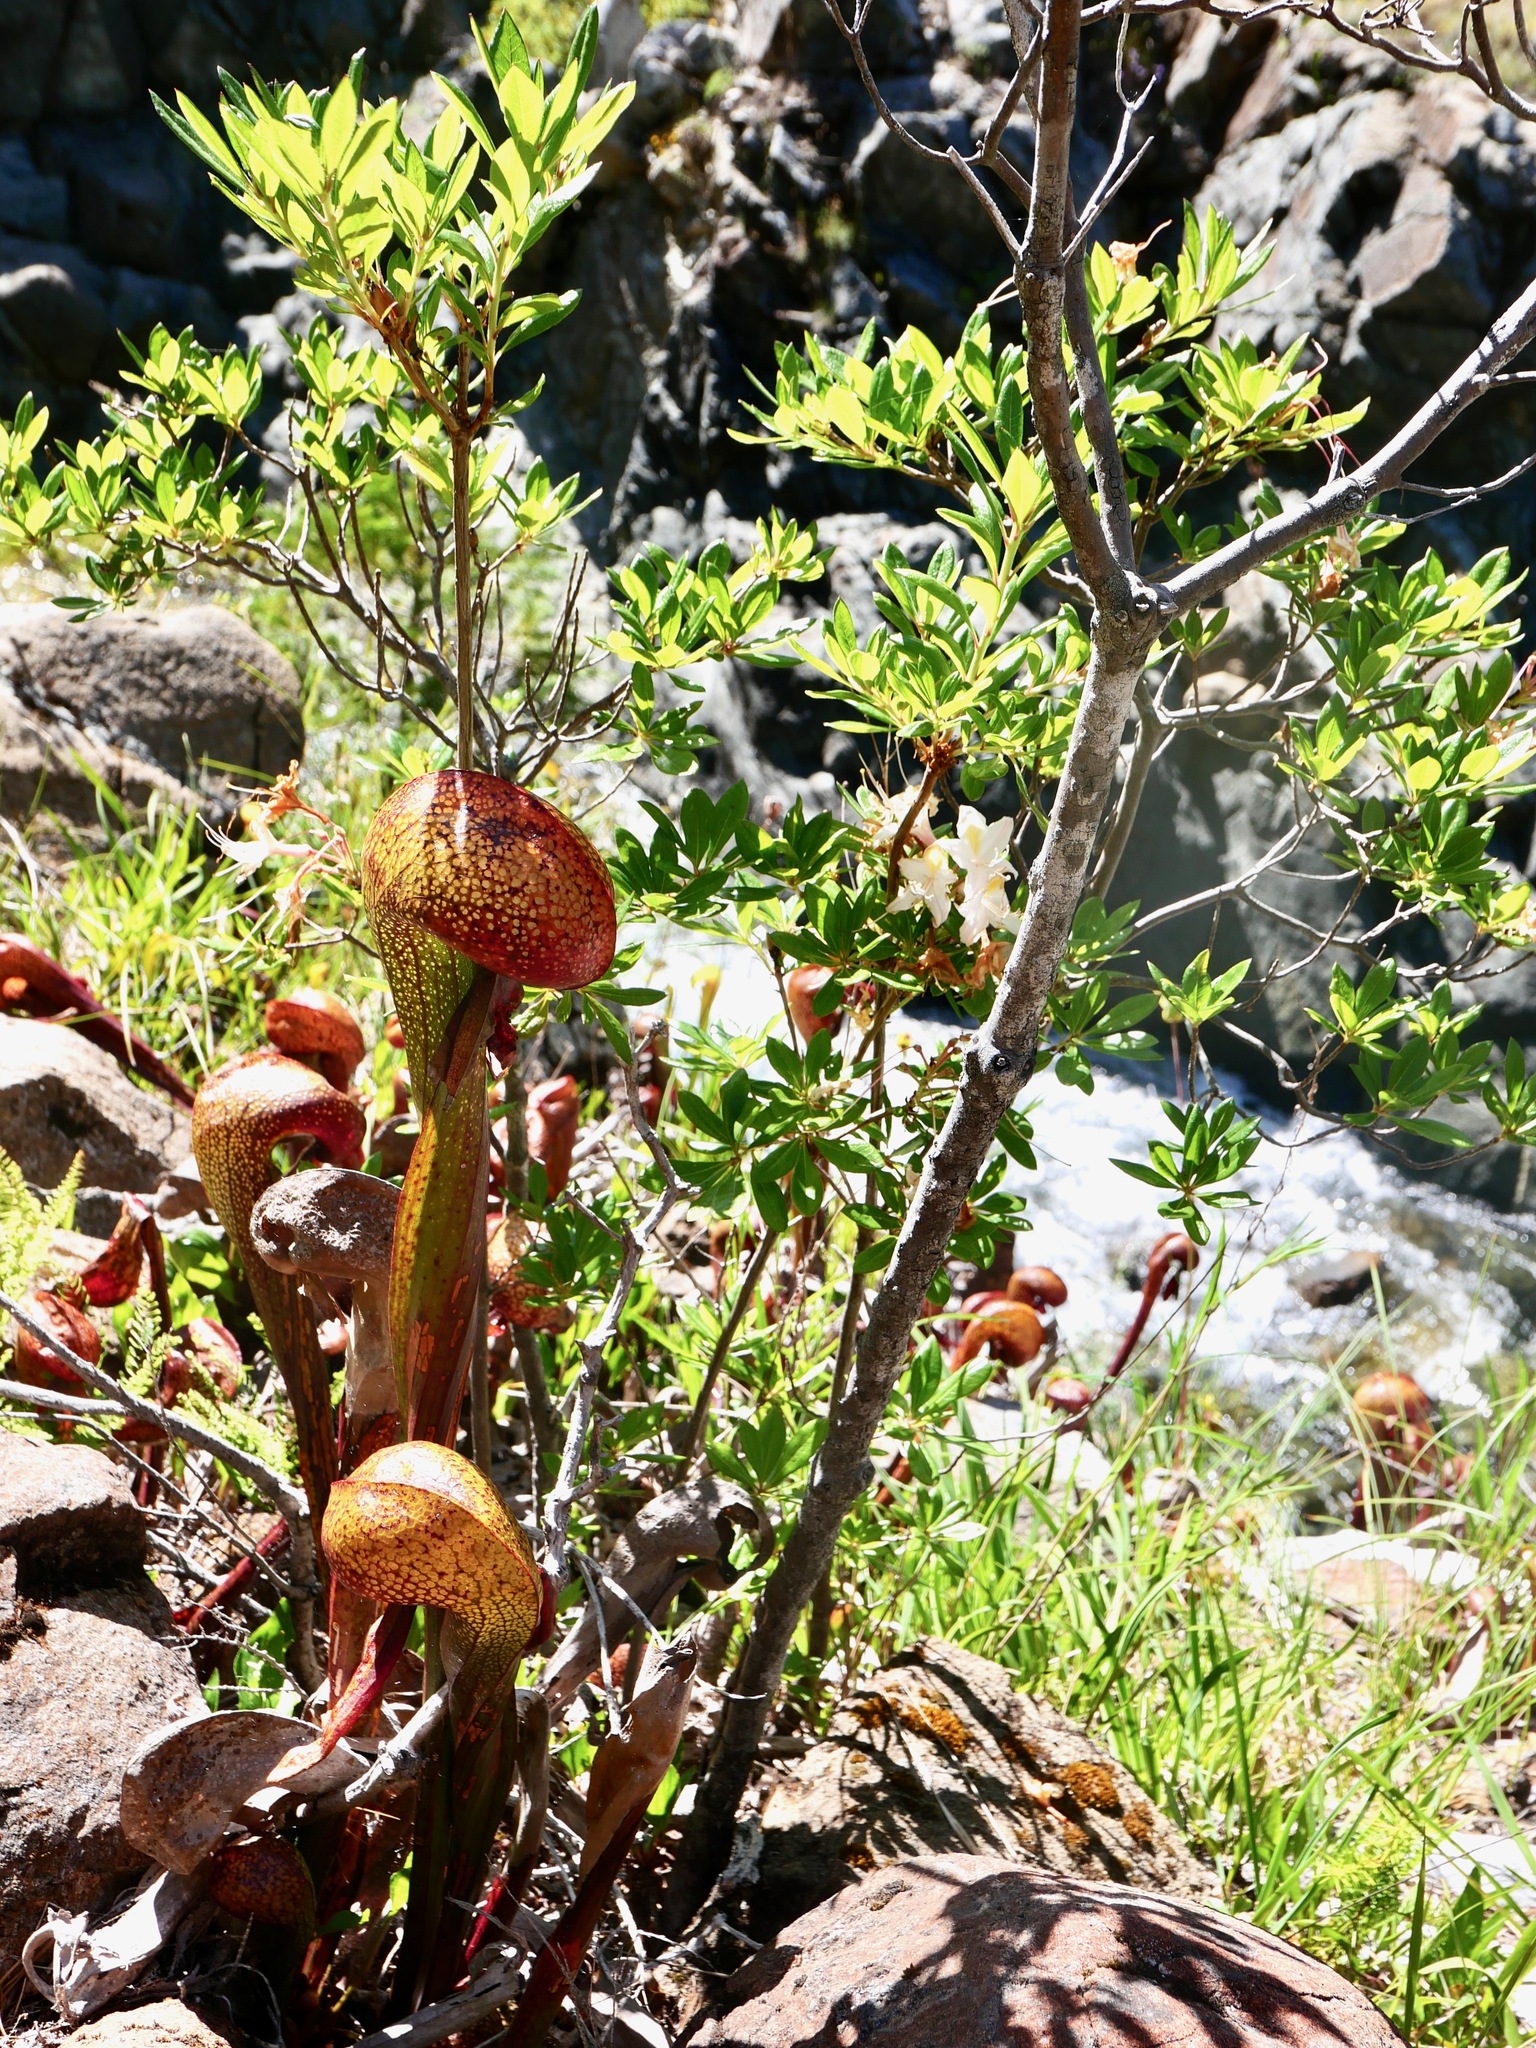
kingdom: Plantae
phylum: Tracheophyta
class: Magnoliopsida
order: Ericales
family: Sarraceniaceae
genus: Darlingtonia
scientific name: Darlingtonia californica
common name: California pitcher plant
